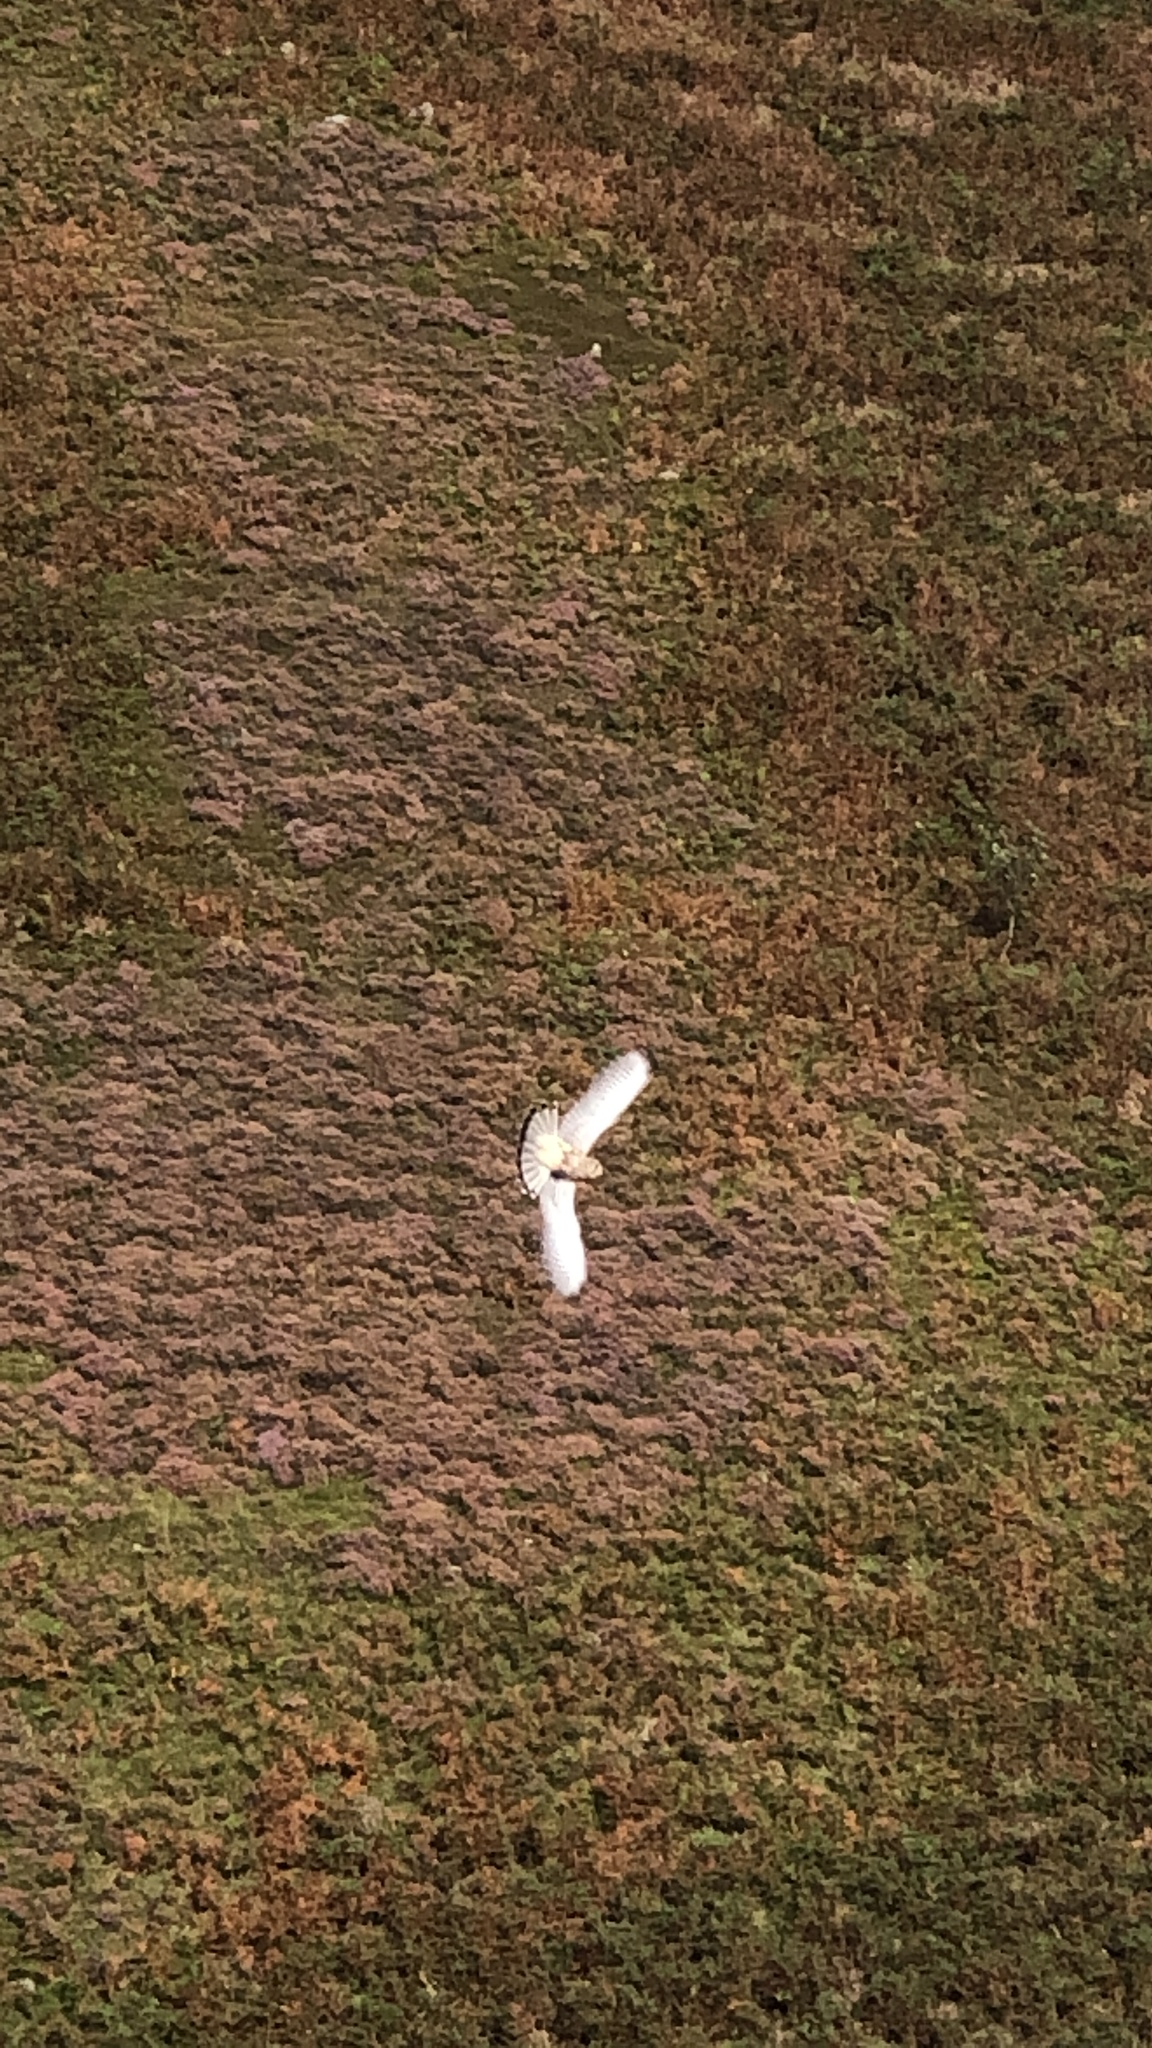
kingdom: Animalia
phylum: Chordata
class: Aves
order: Falconiformes
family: Falconidae
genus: Falco
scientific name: Falco tinnunculus
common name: Common kestrel
